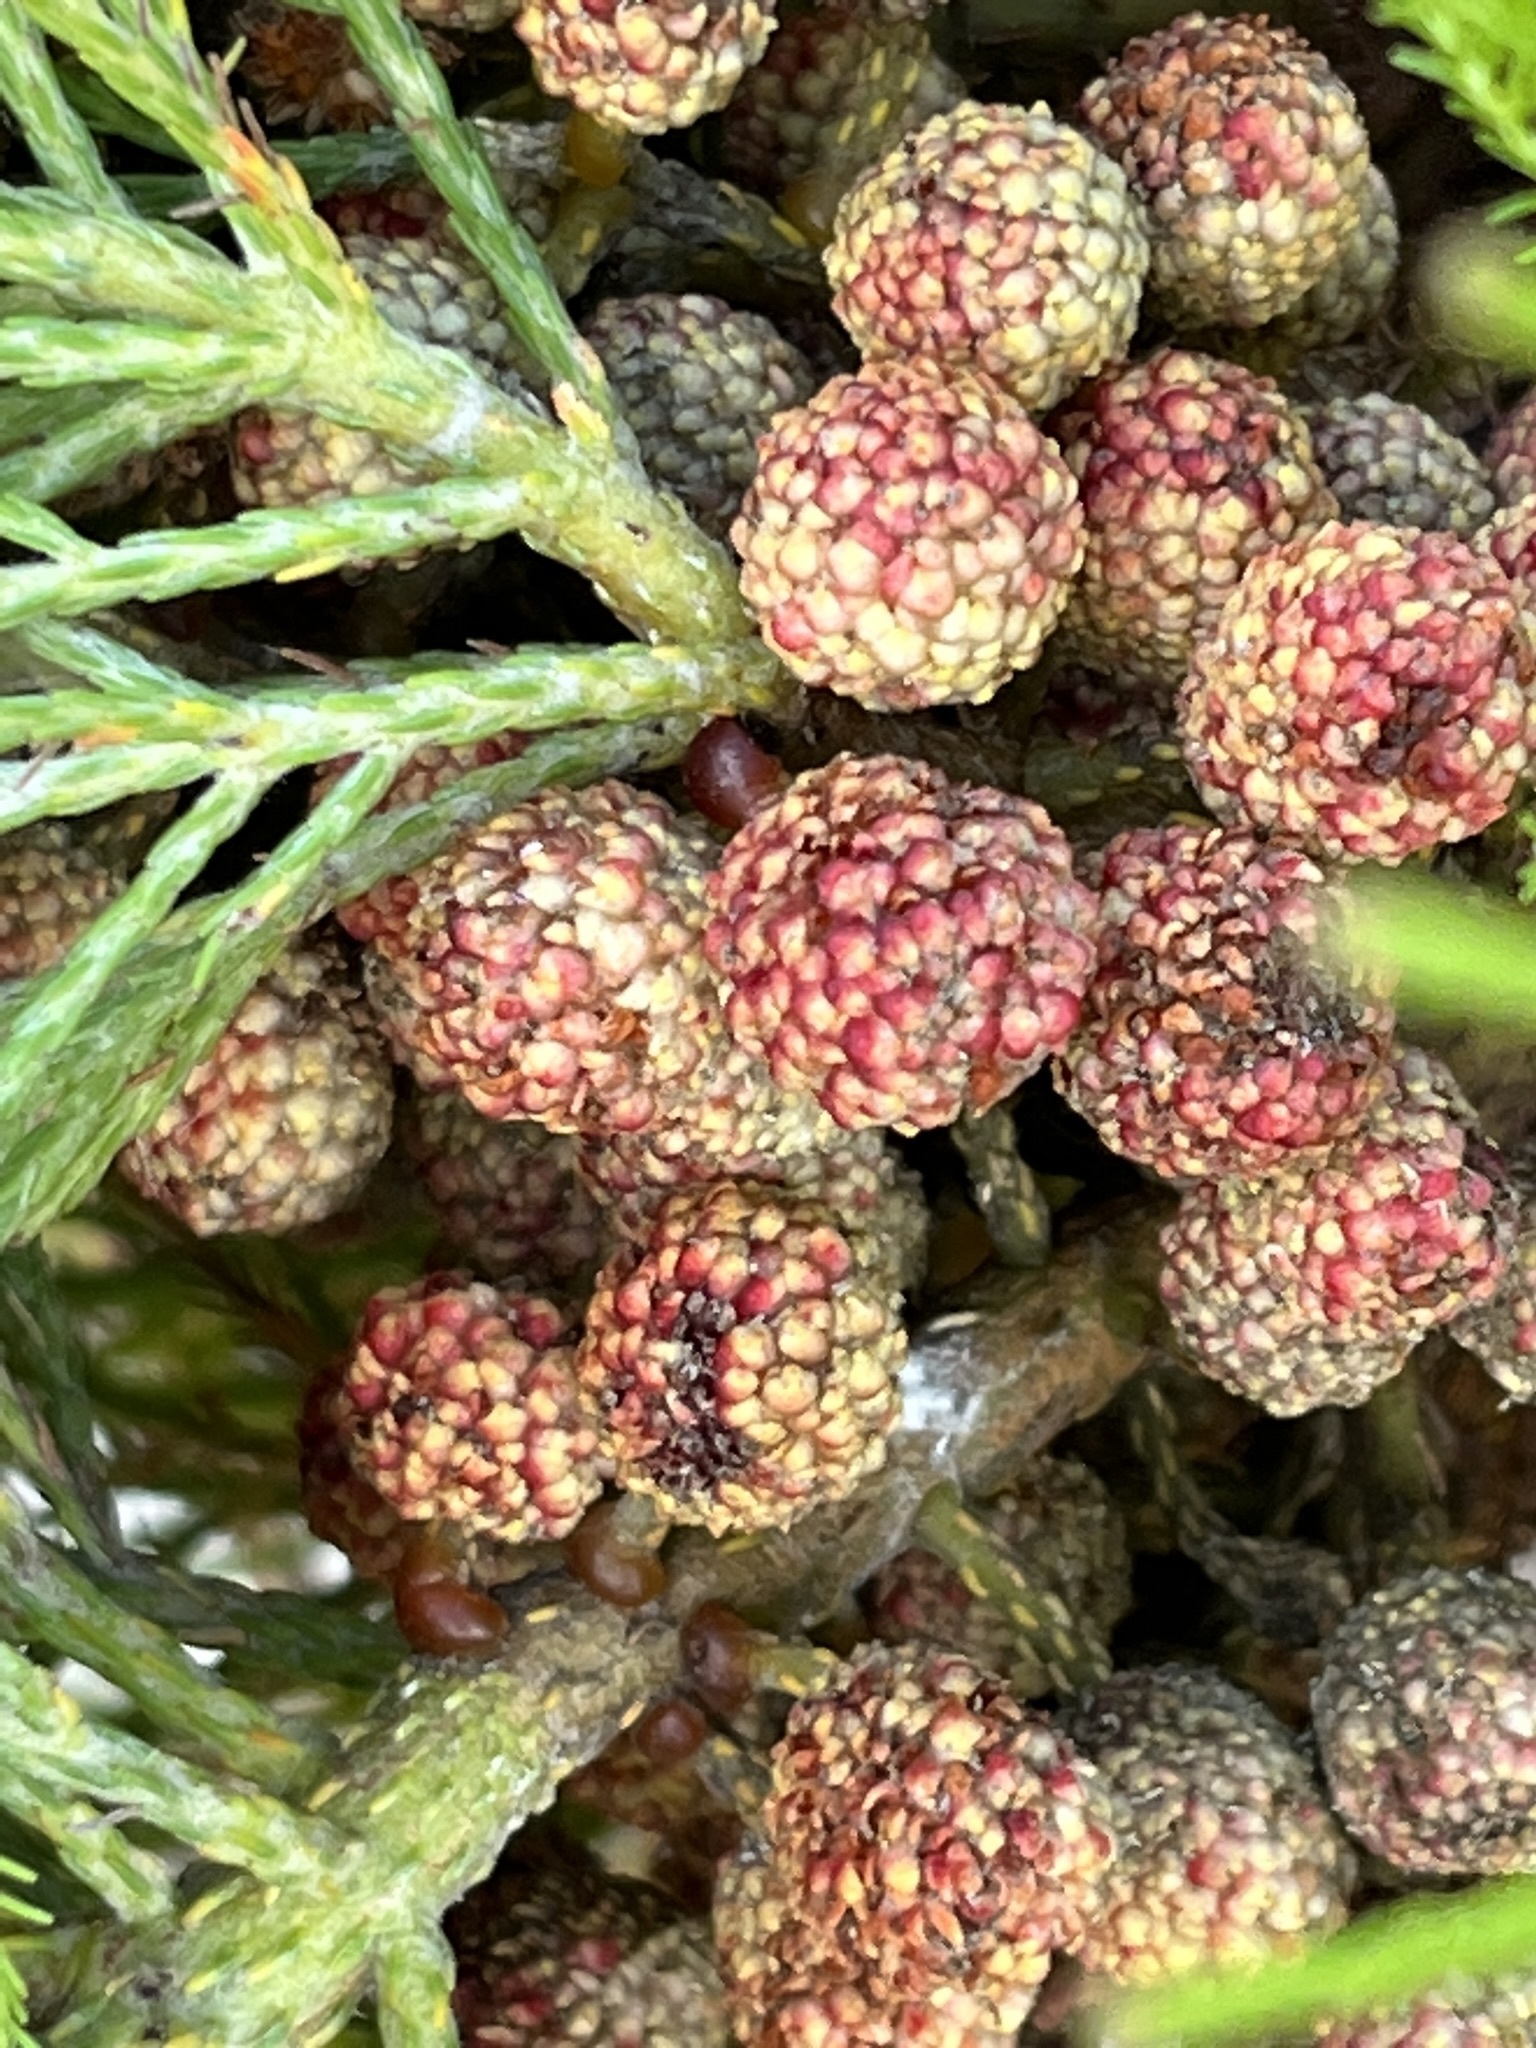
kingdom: Plantae
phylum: Tracheophyta
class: Magnoliopsida
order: Bruniales
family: Bruniaceae
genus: Berzelia
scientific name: Berzelia lanuginosa
